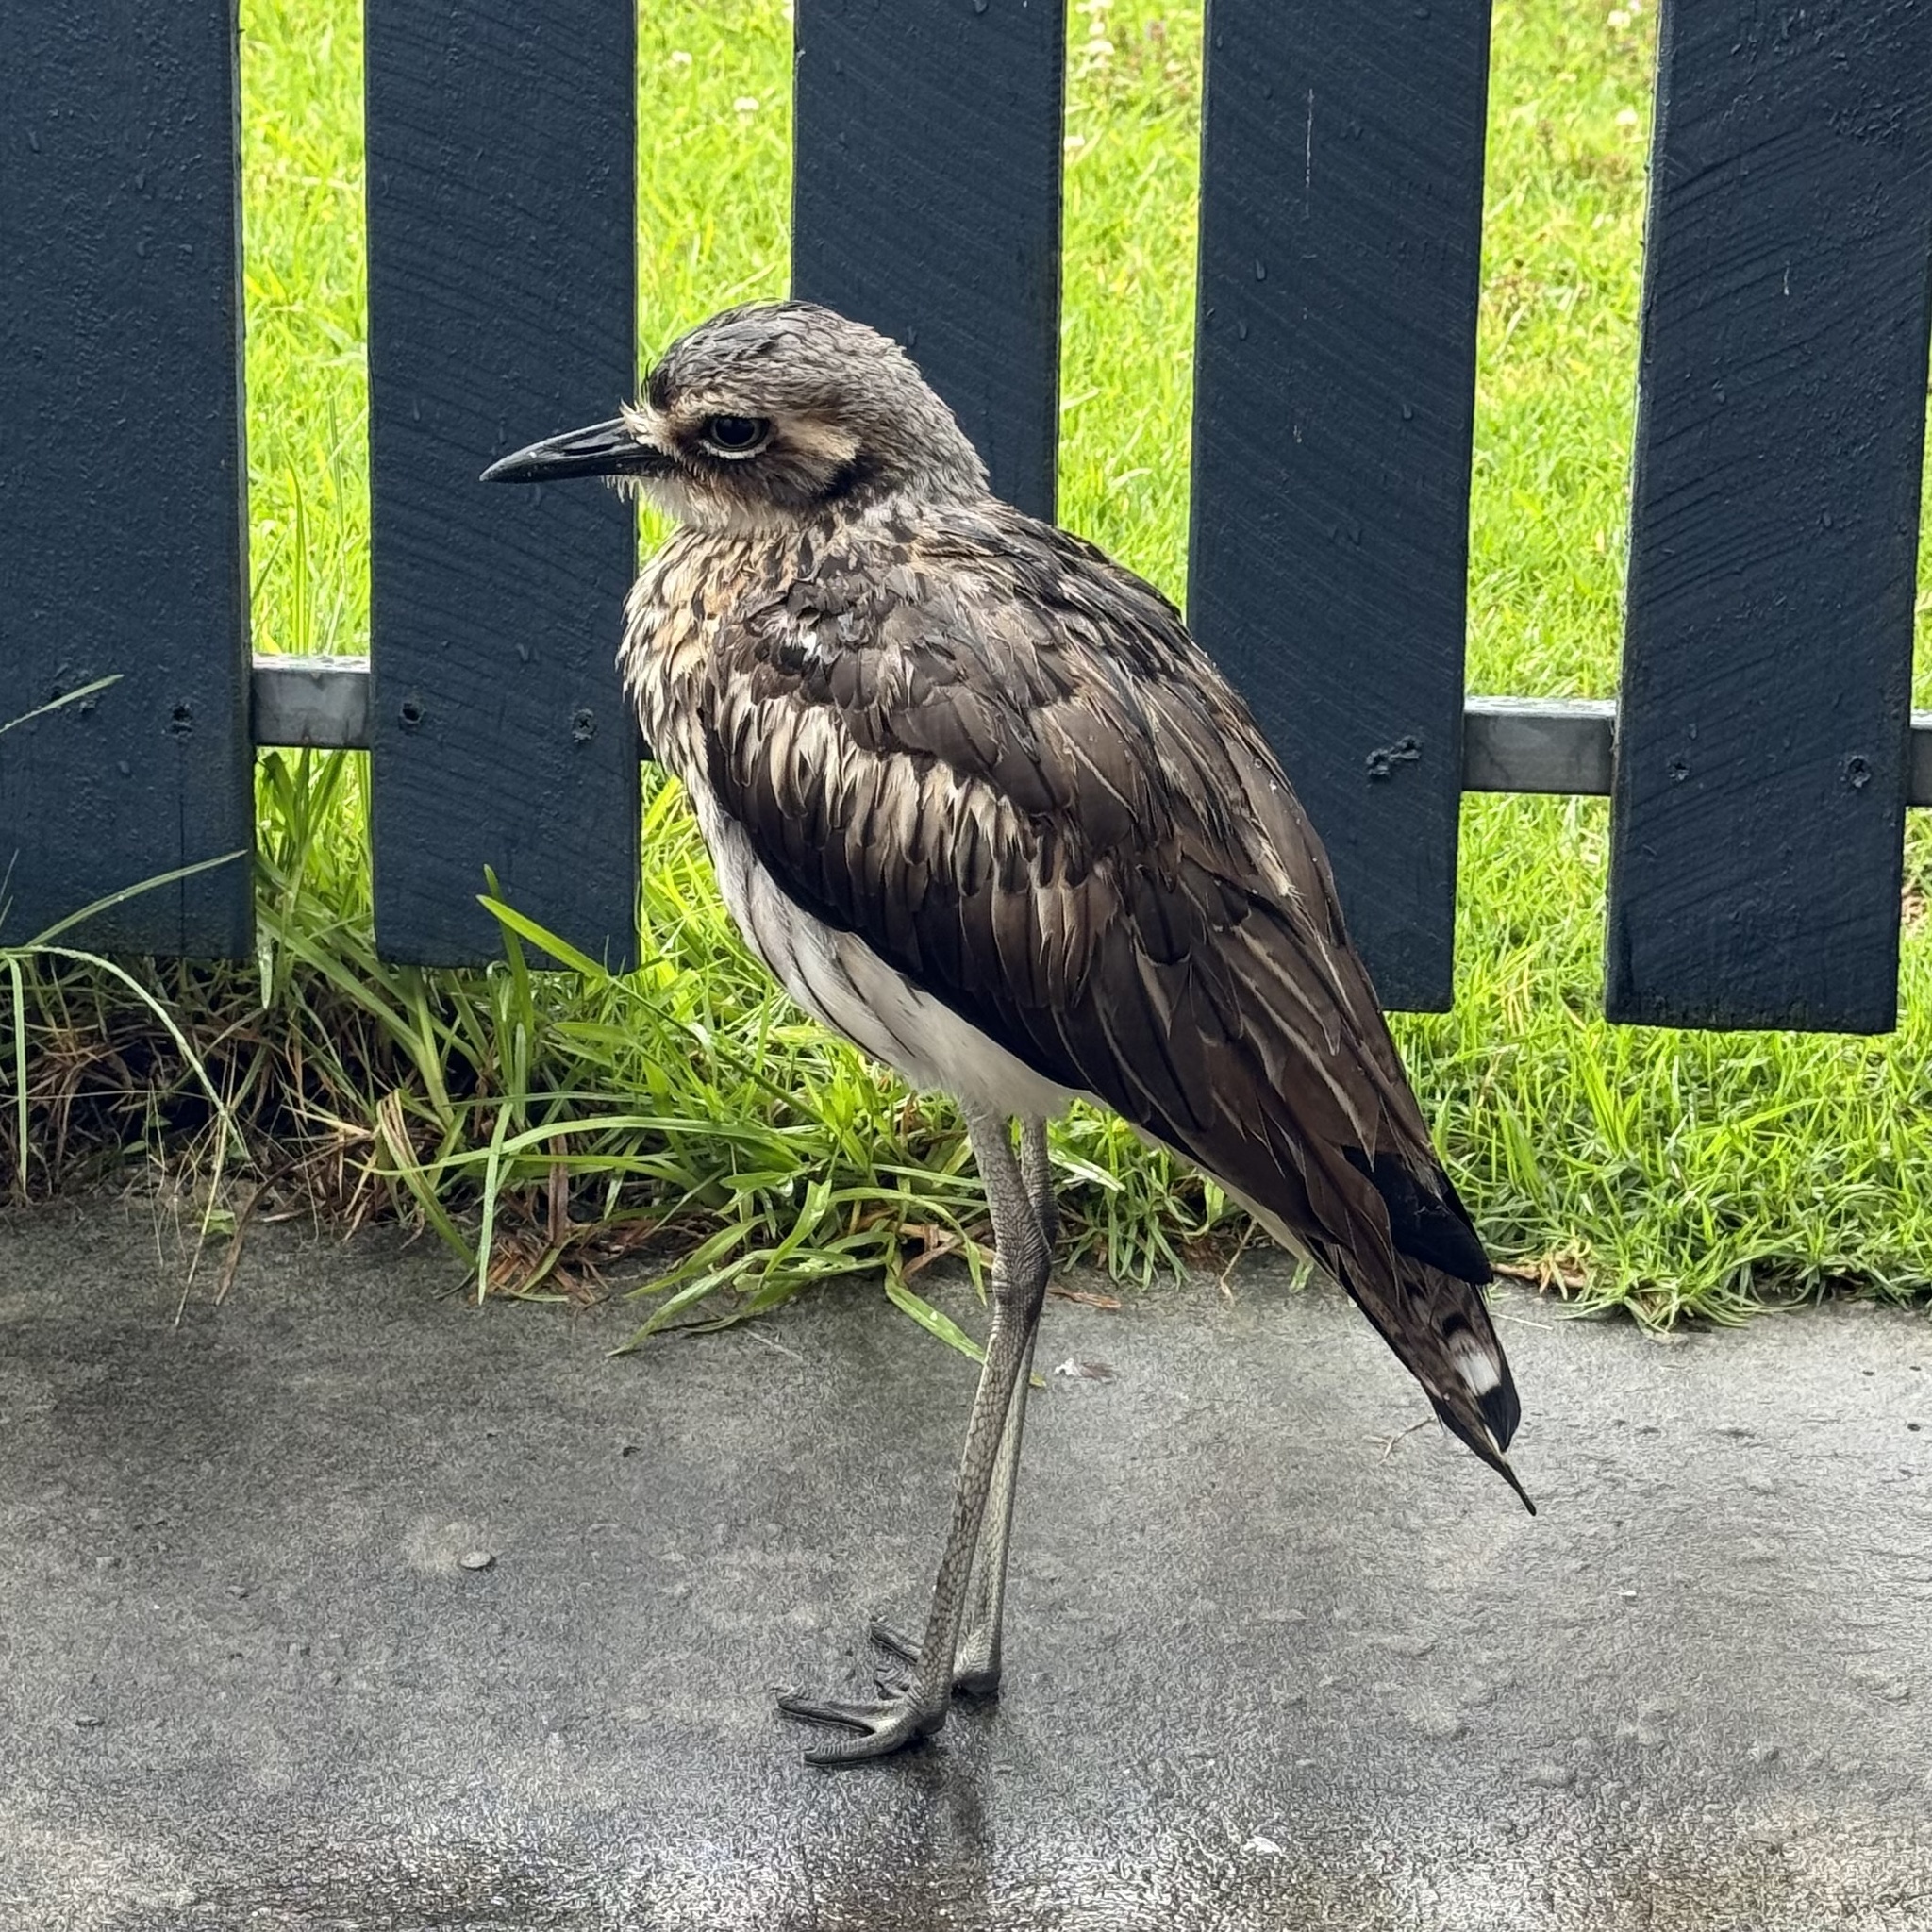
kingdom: Animalia
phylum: Chordata
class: Aves
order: Charadriiformes
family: Burhinidae
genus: Burhinus
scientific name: Burhinus grallarius
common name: Bush stone-curlew
